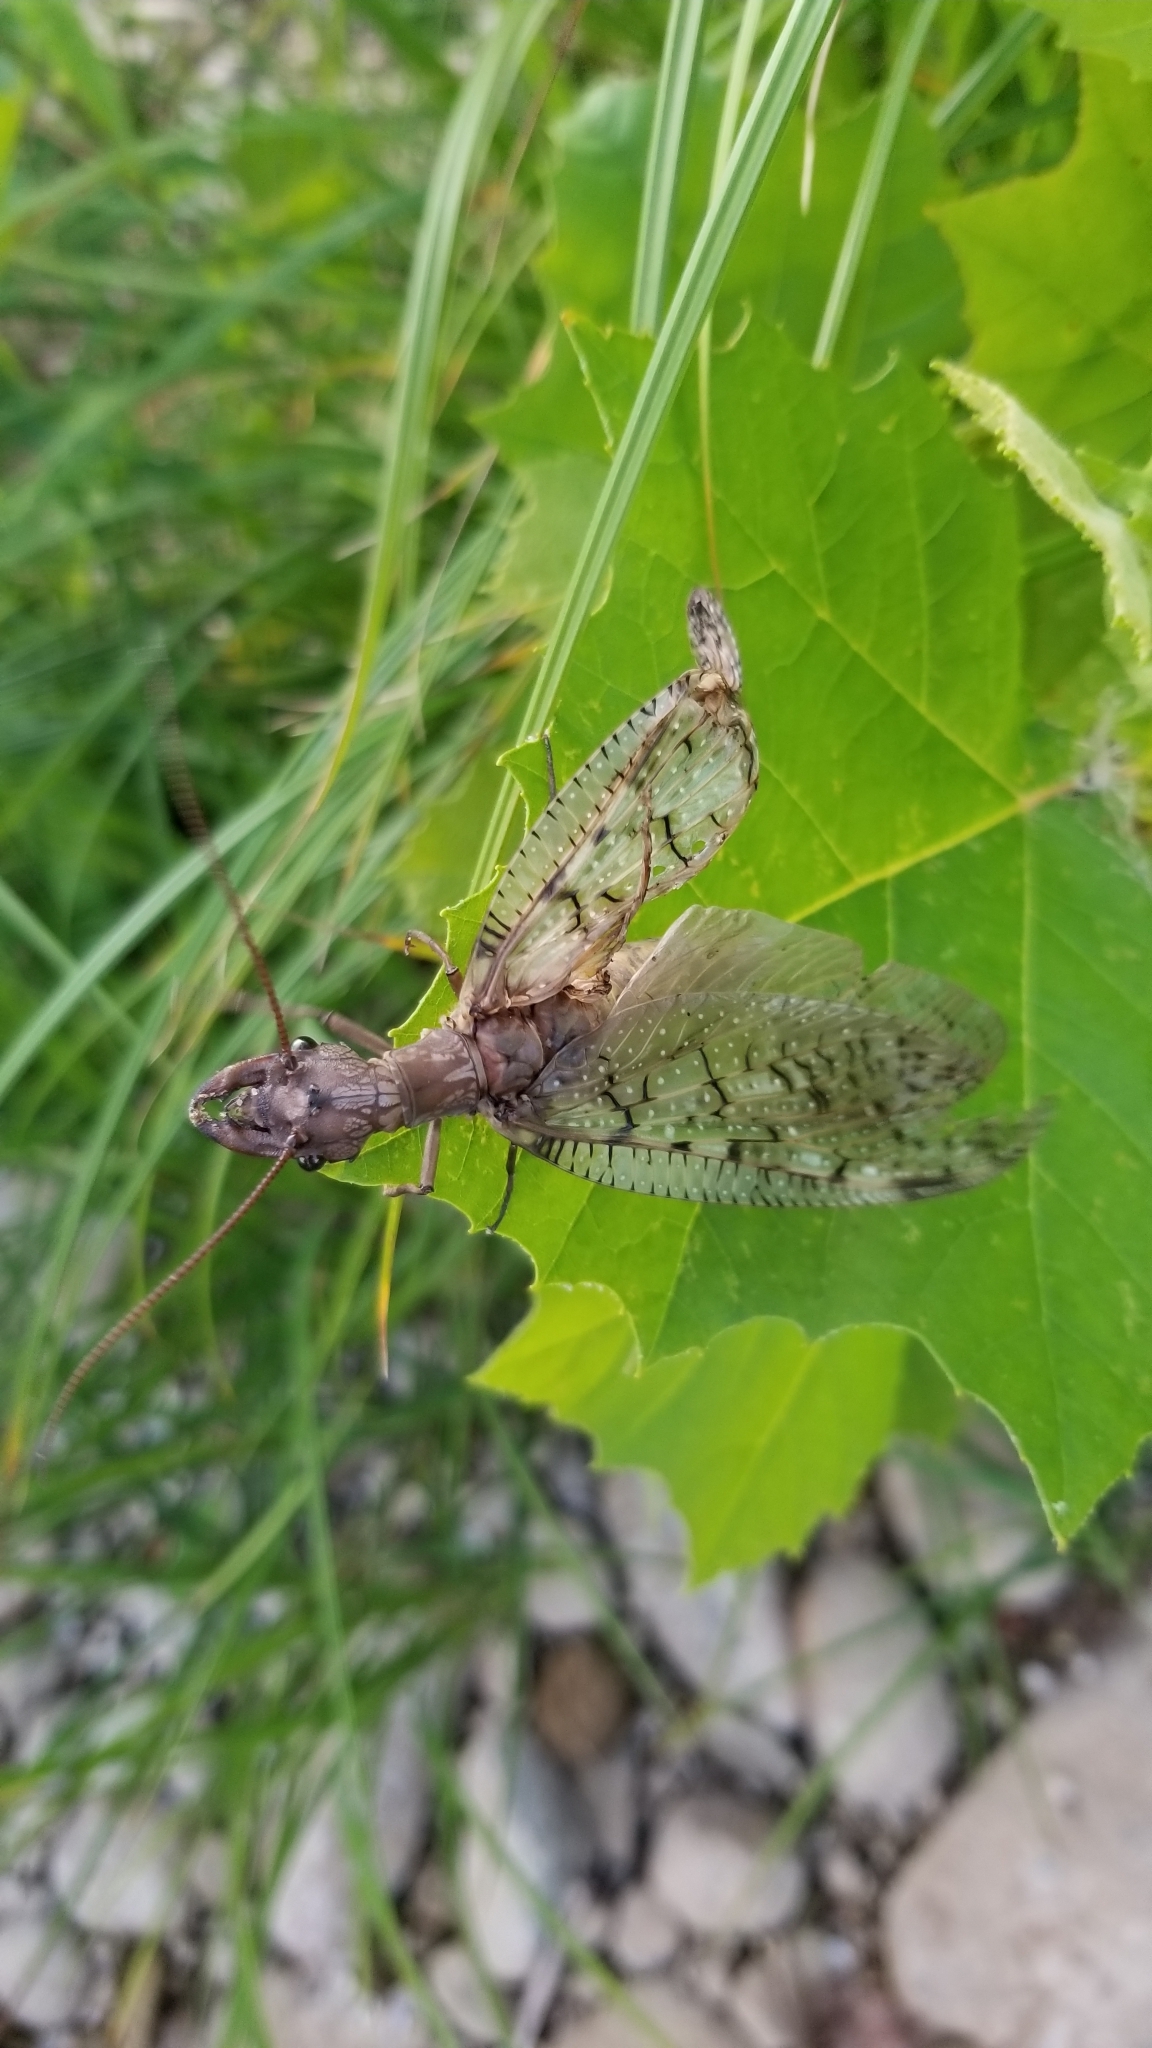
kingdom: Animalia
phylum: Arthropoda
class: Insecta
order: Megaloptera
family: Corydalidae
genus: Corydalus
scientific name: Corydalus cornutus
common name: Dobsonfly
